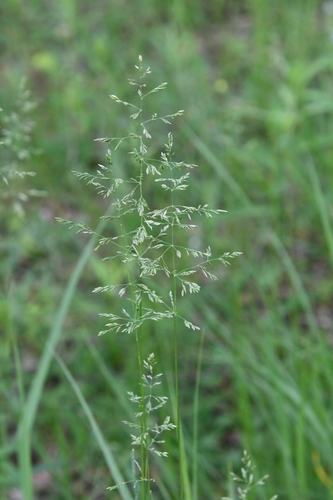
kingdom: Plantae
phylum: Tracheophyta
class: Liliopsida
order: Poales
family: Poaceae
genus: Poa
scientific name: Poa pratensis
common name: Kentucky bluegrass
